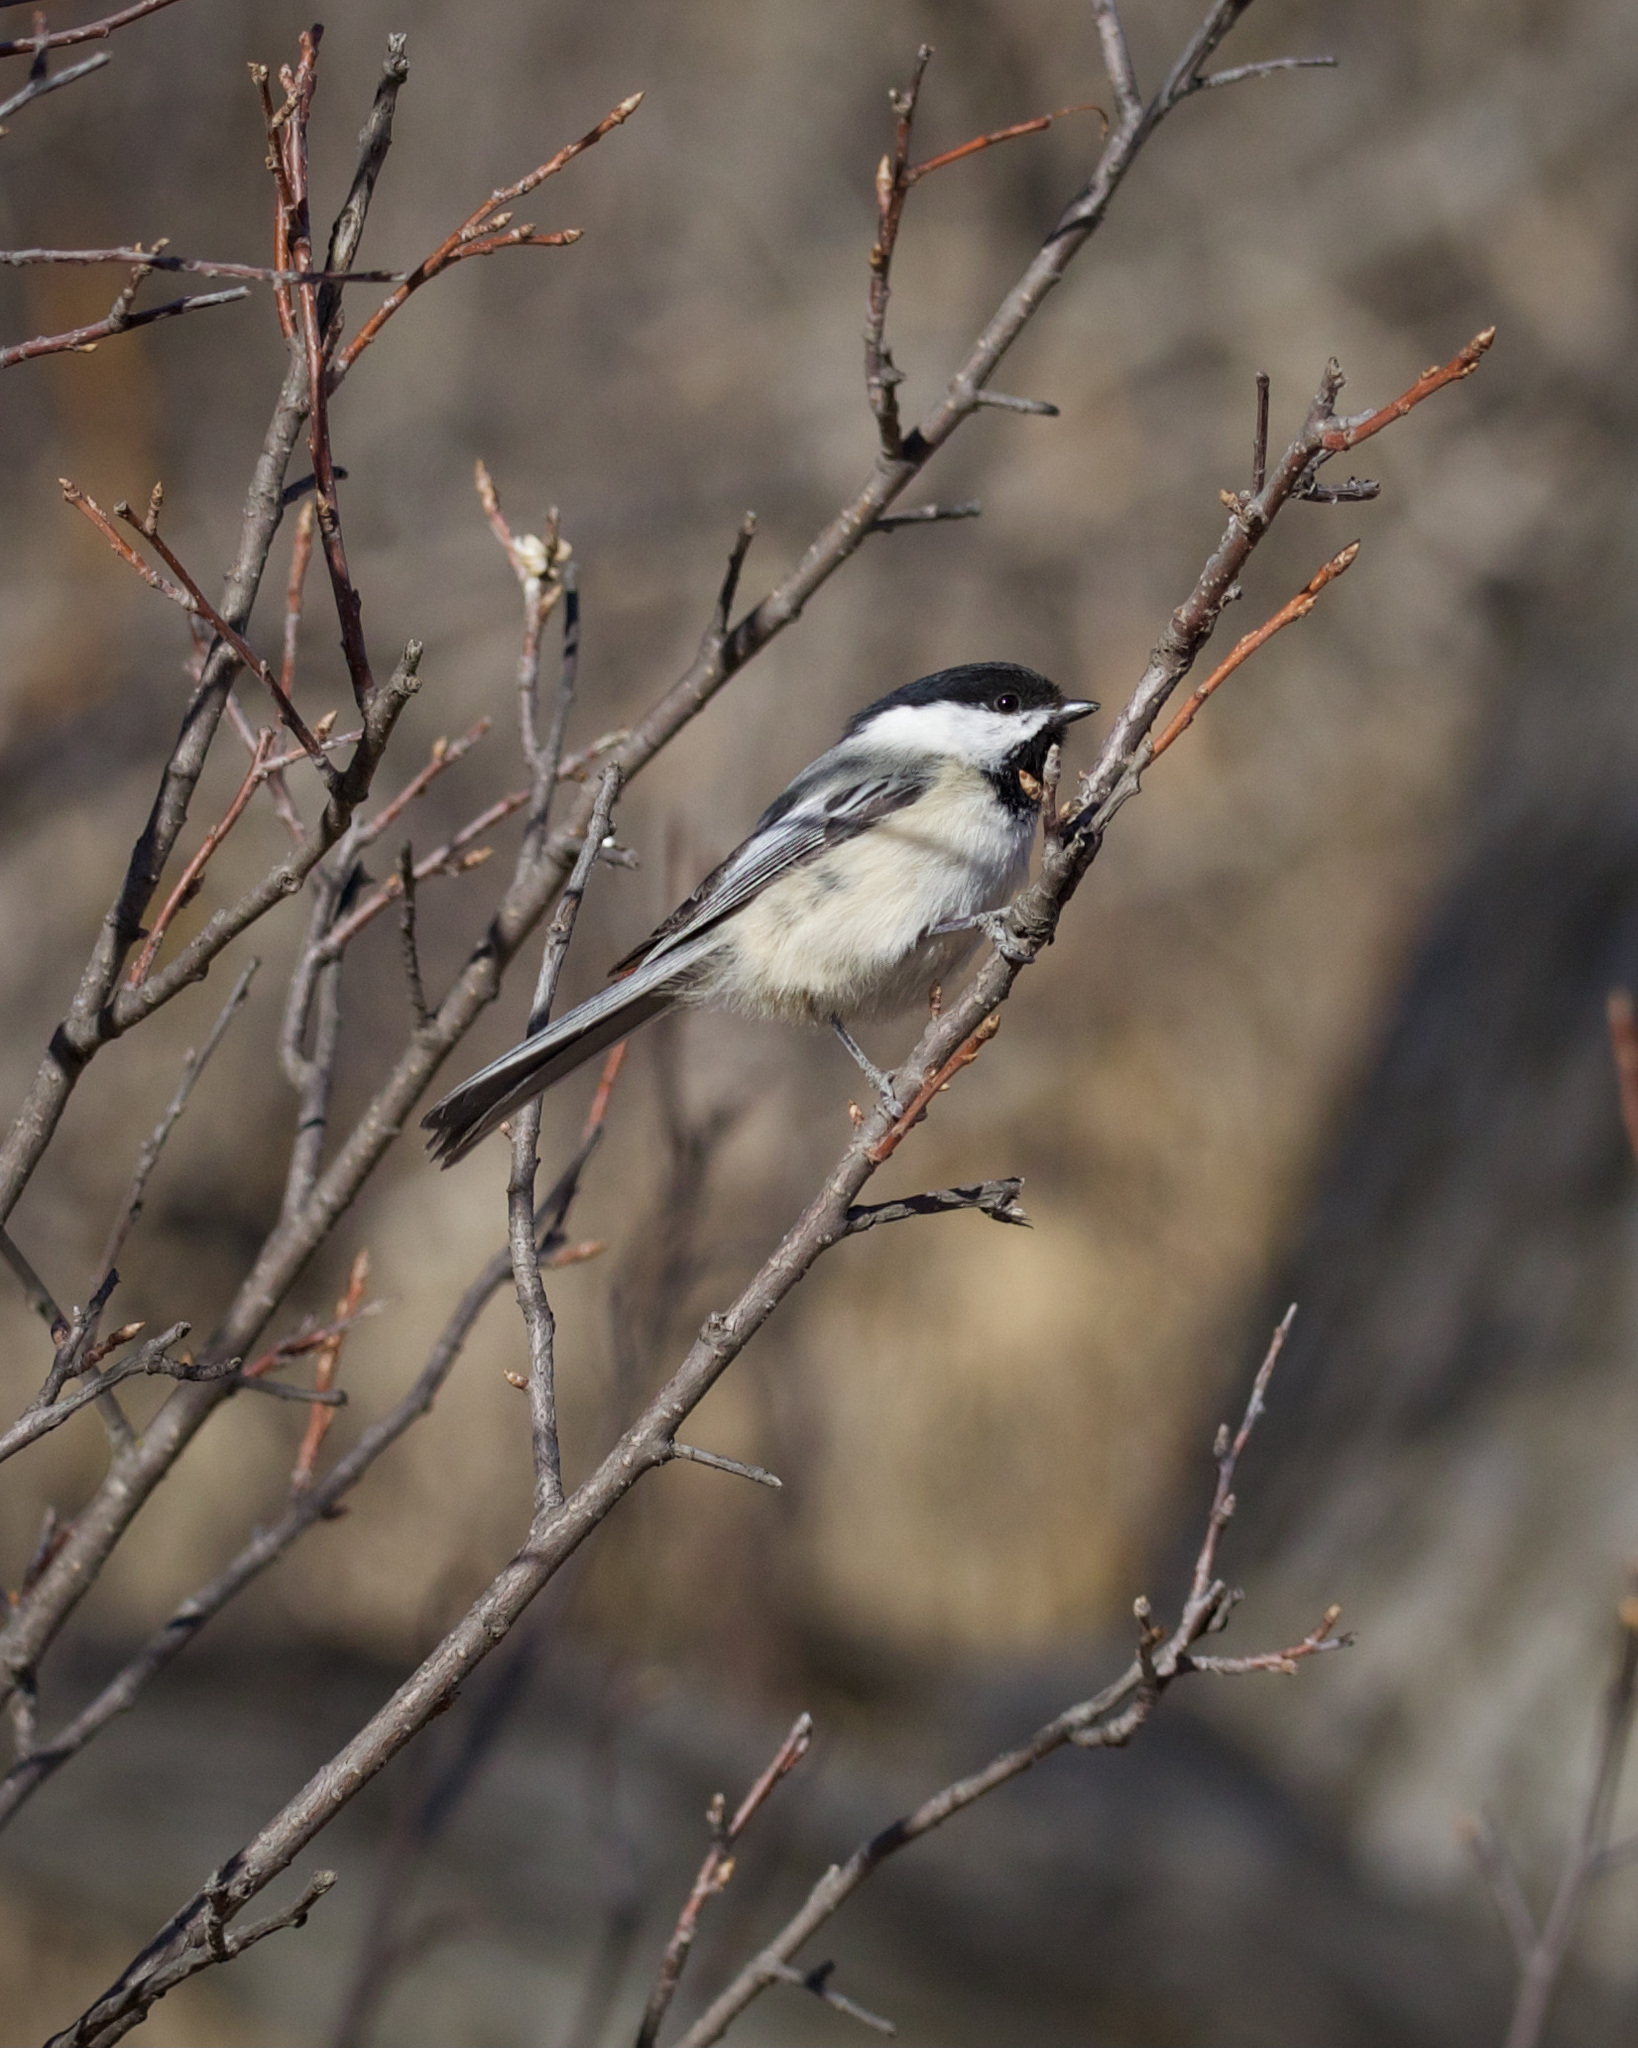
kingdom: Animalia
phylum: Chordata
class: Aves
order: Passeriformes
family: Paridae
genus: Poecile
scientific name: Poecile atricapillus
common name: Black-capped chickadee
